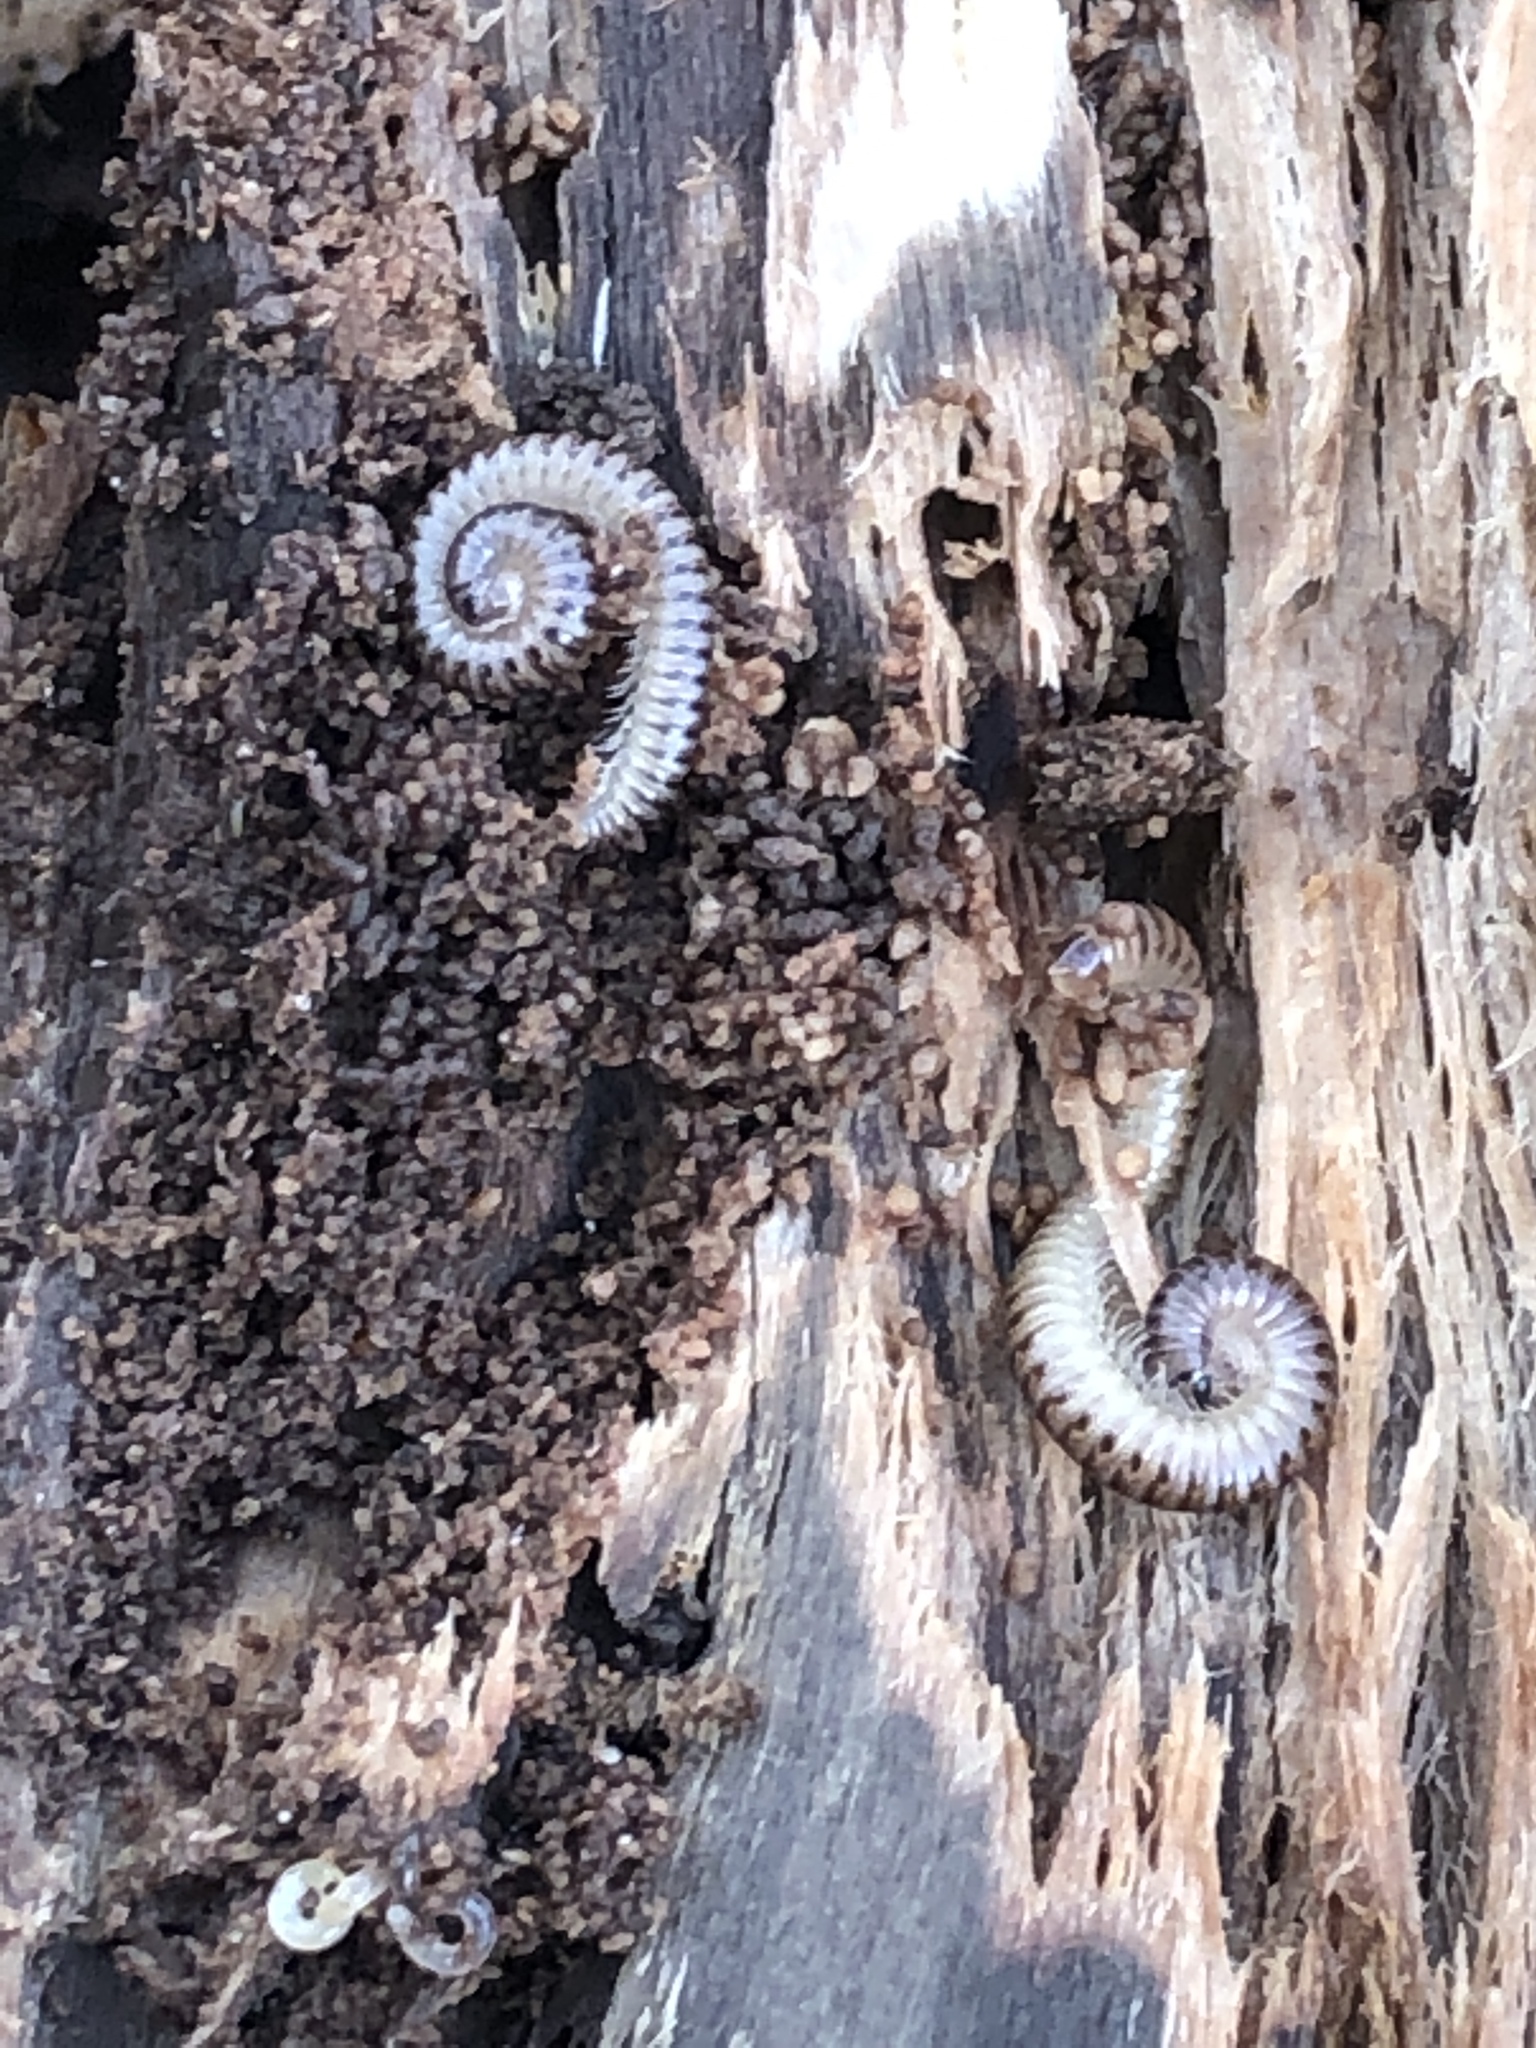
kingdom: Animalia
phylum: Arthropoda
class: Diplopoda
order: Julida
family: Julidae
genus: Cylindroiulus
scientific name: Cylindroiulus punctatus
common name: Blunt-tailed millipede
